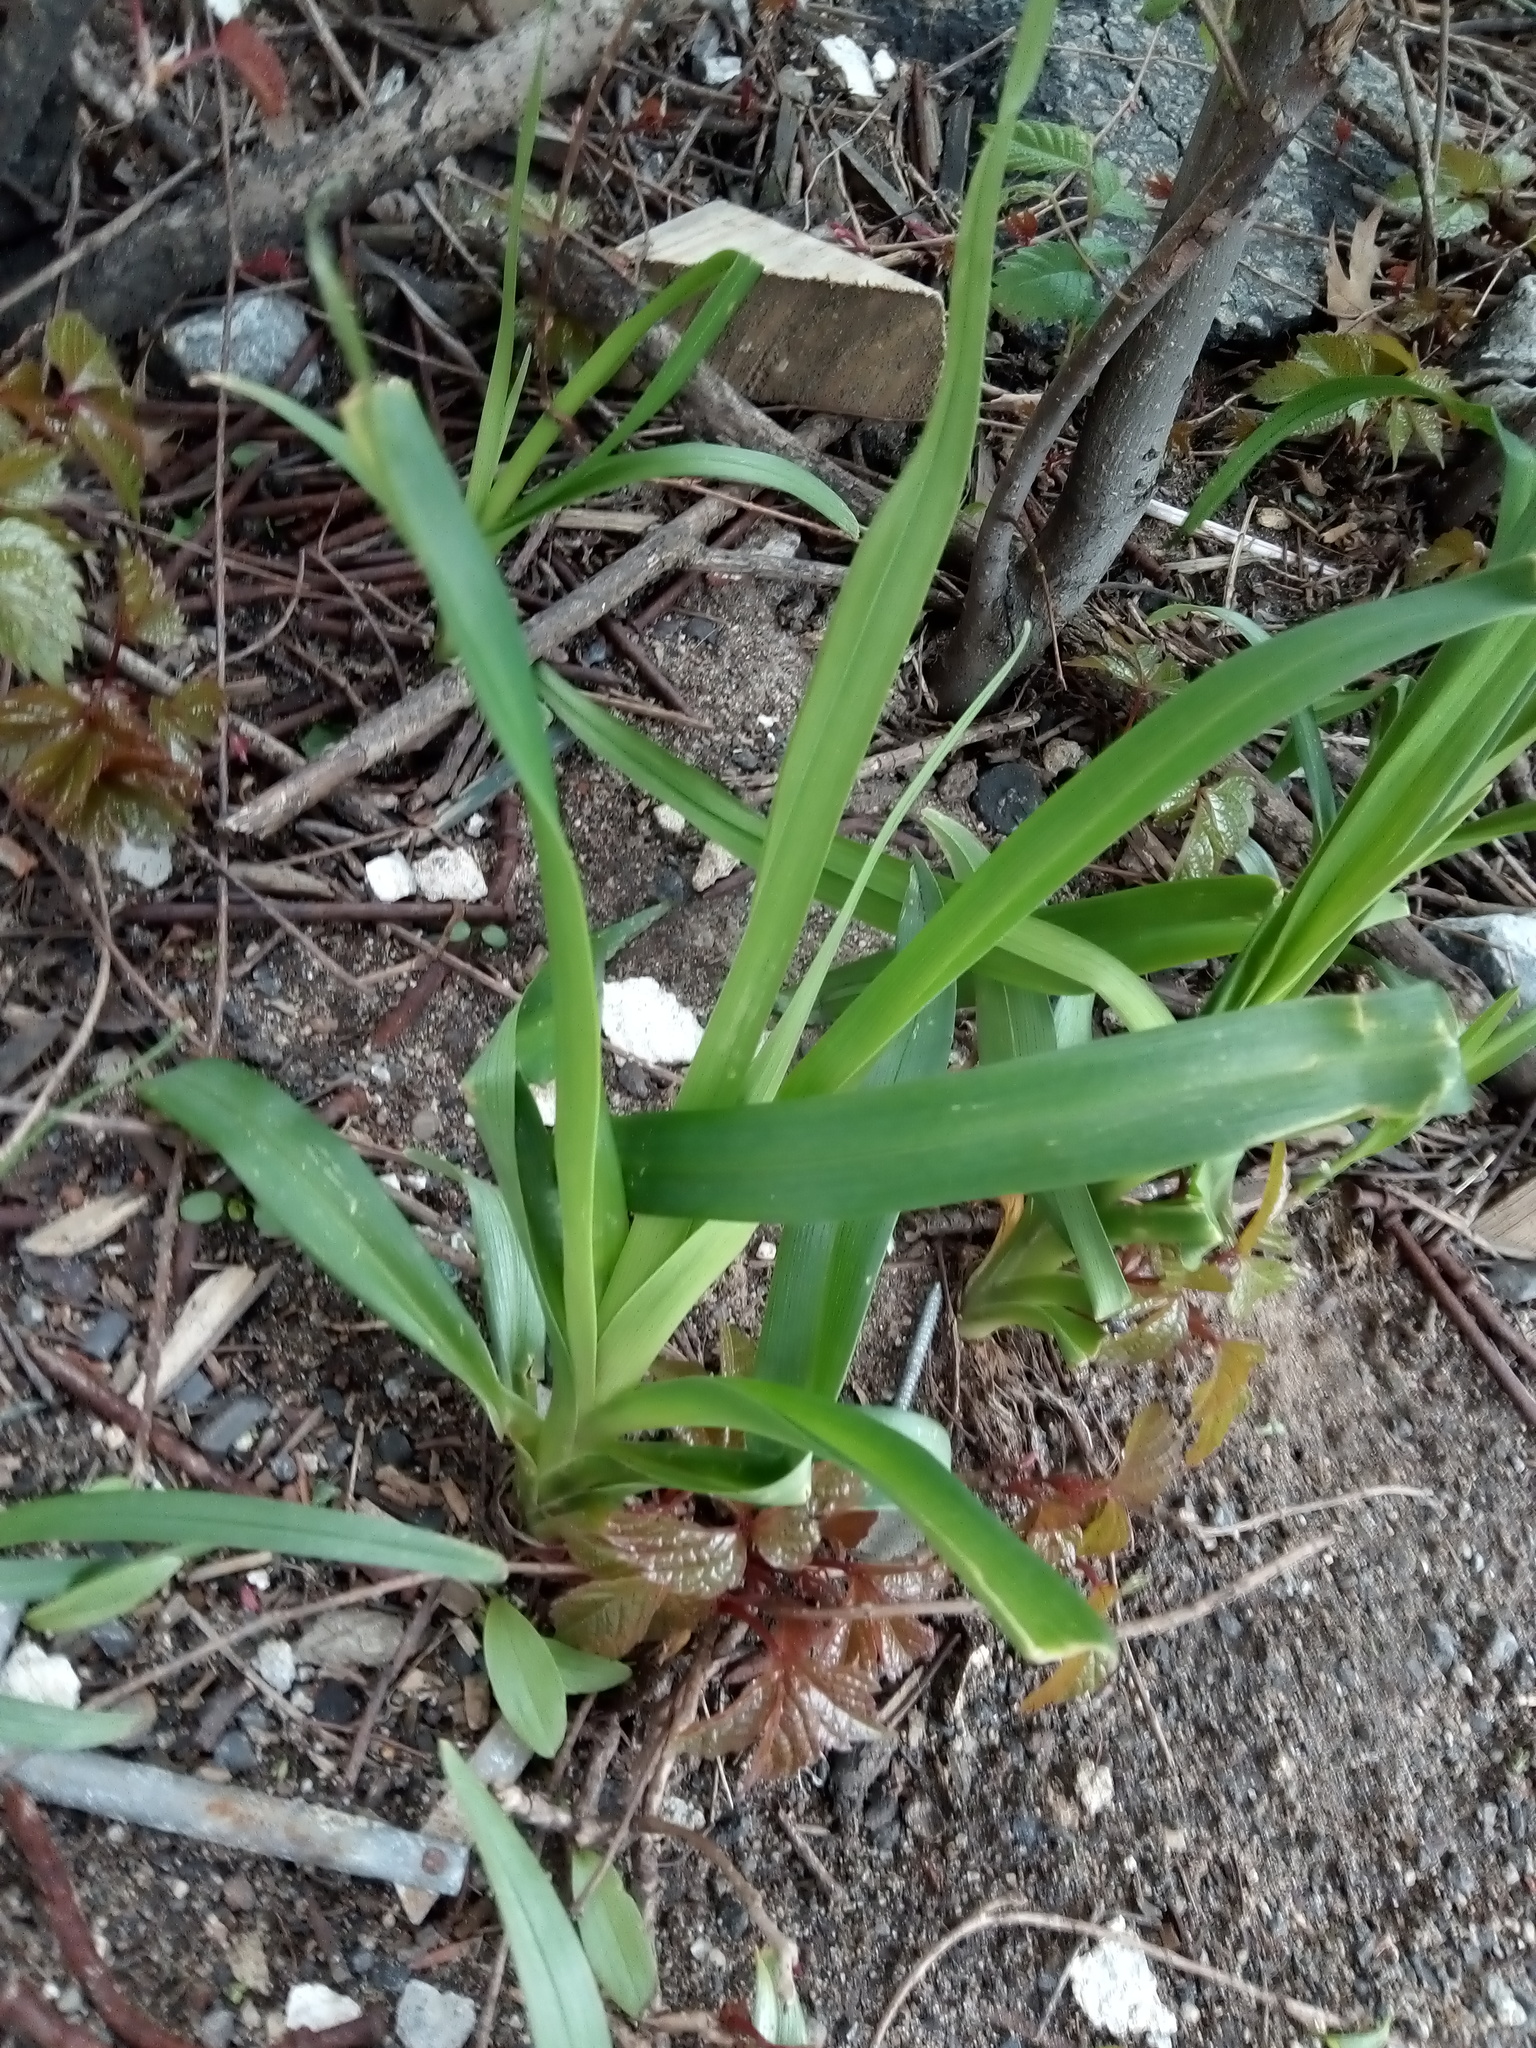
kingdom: Plantae
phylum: Tracheophyta
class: Liliopsida
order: Asparagales
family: Asphodelaceae
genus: Hemerocallis
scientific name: Hemerocallis fulva
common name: Orange day-lily
